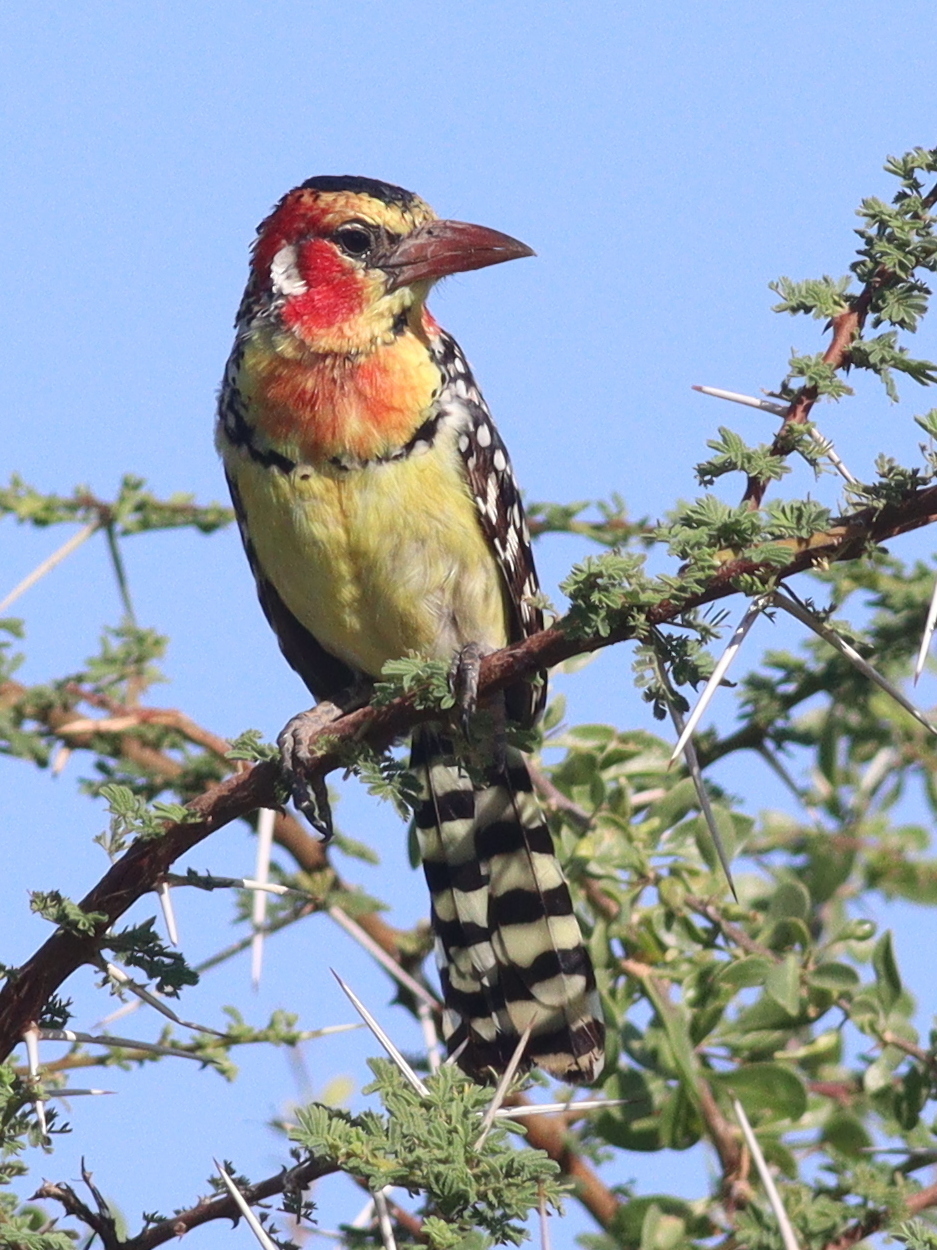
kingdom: Animalia
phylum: Chordata
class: Aves
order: Piciformes
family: Lybiidae
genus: Trachyphonus
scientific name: Trachyphonus erythrocephalus
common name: Red-and-yellow barbet
